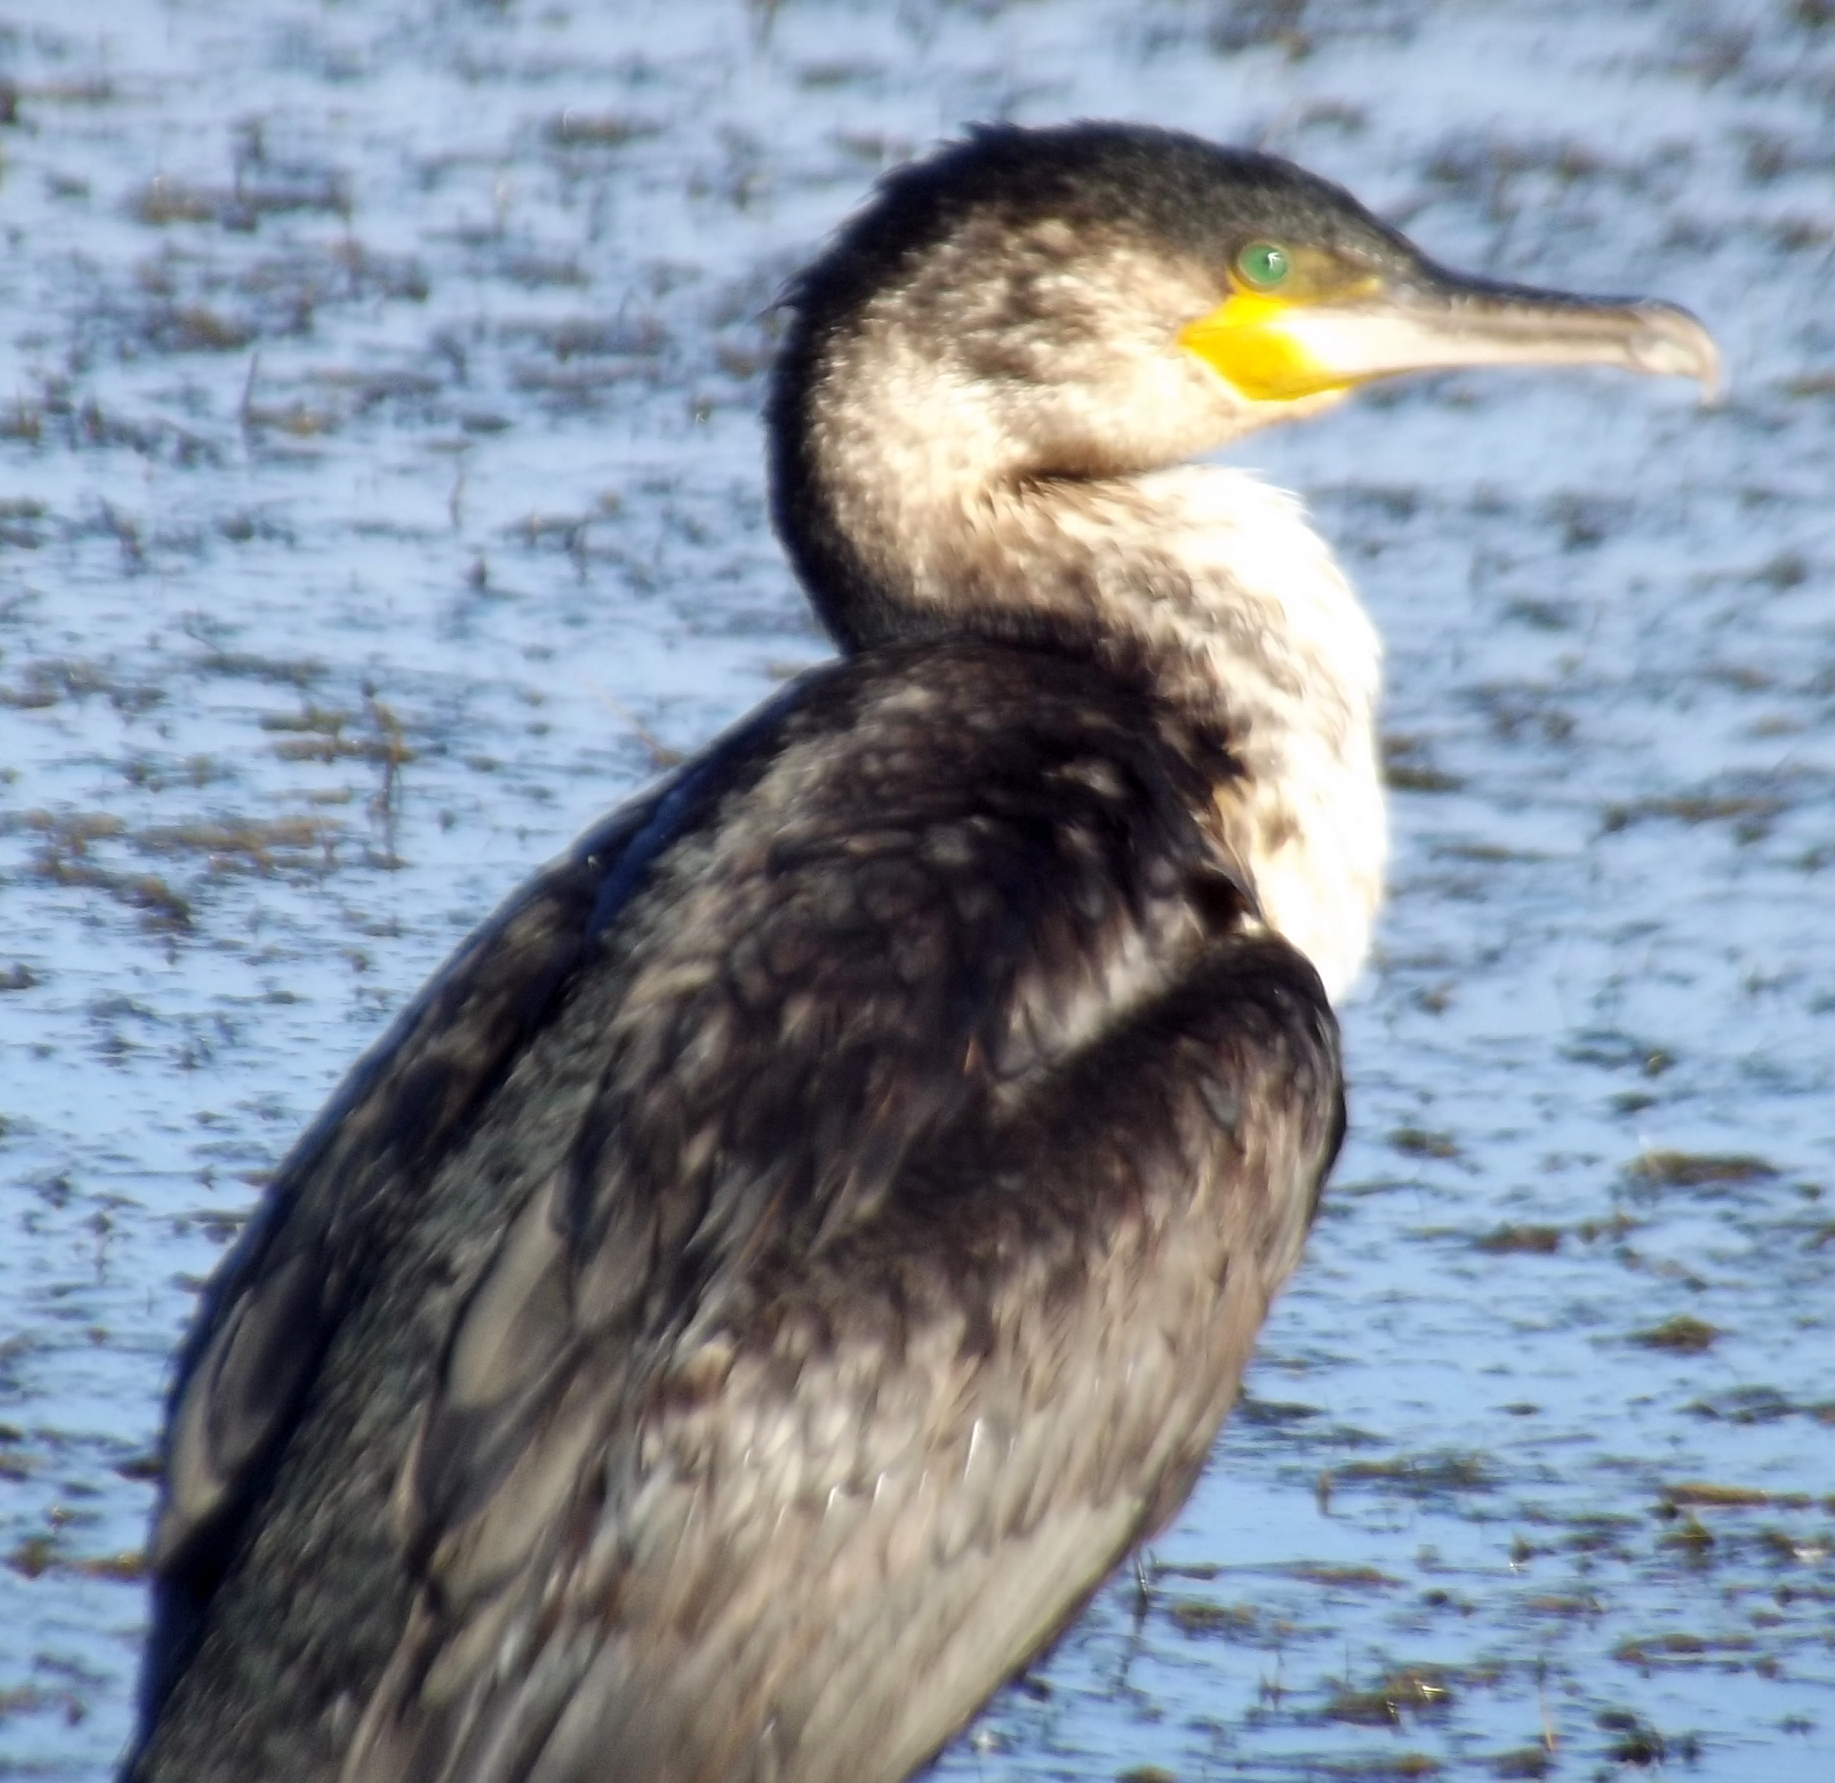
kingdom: Animalia
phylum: Chordata
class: Aves
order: Suliformes
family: Phalacrocoracidae
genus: Phalacrocorax
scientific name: Phalacrocorax carbo
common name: Great cormorant
